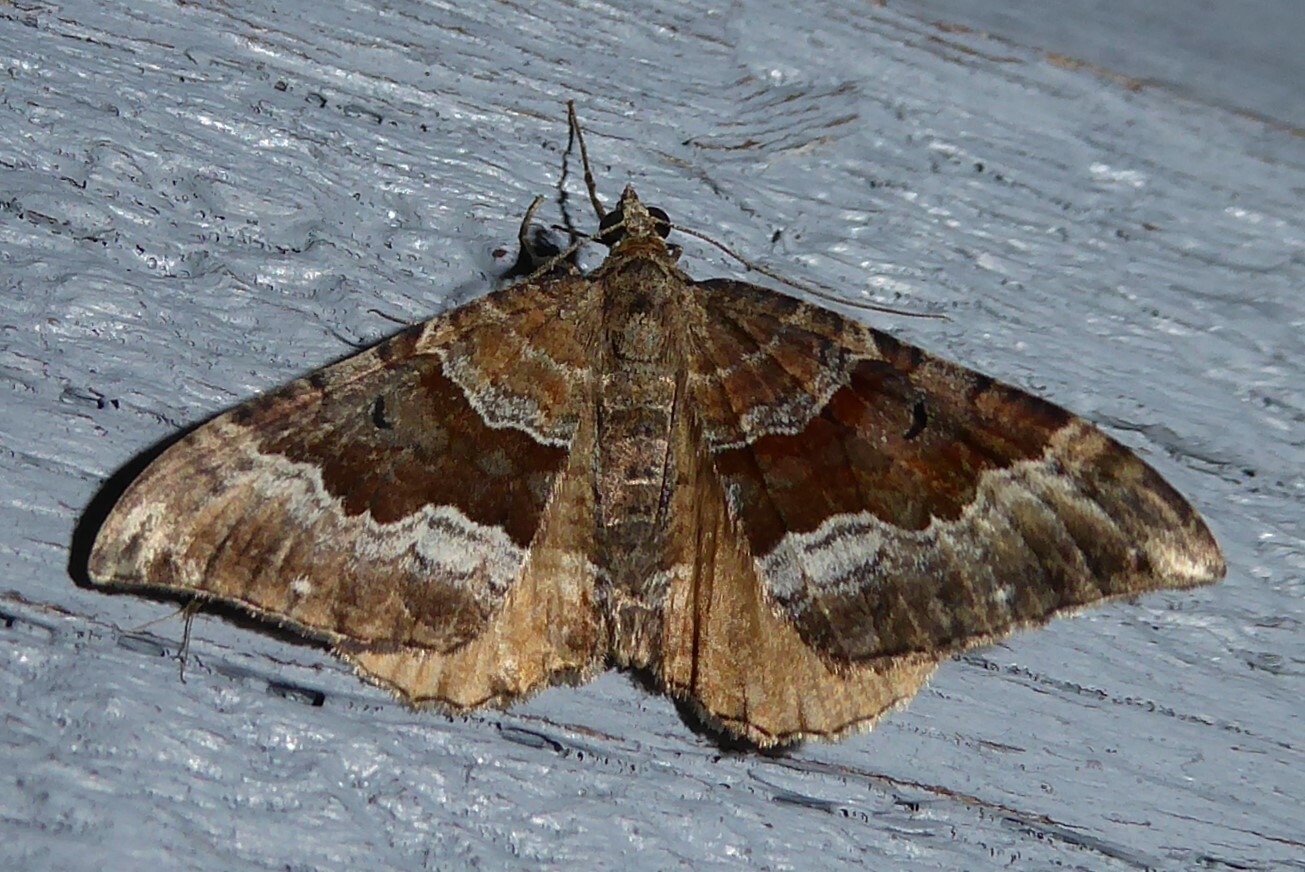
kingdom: Animalia
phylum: Arthropoda
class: Insecta
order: Lepidoptera
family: Geometridae
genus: Hydriomena
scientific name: Hydriomena deltoidata
